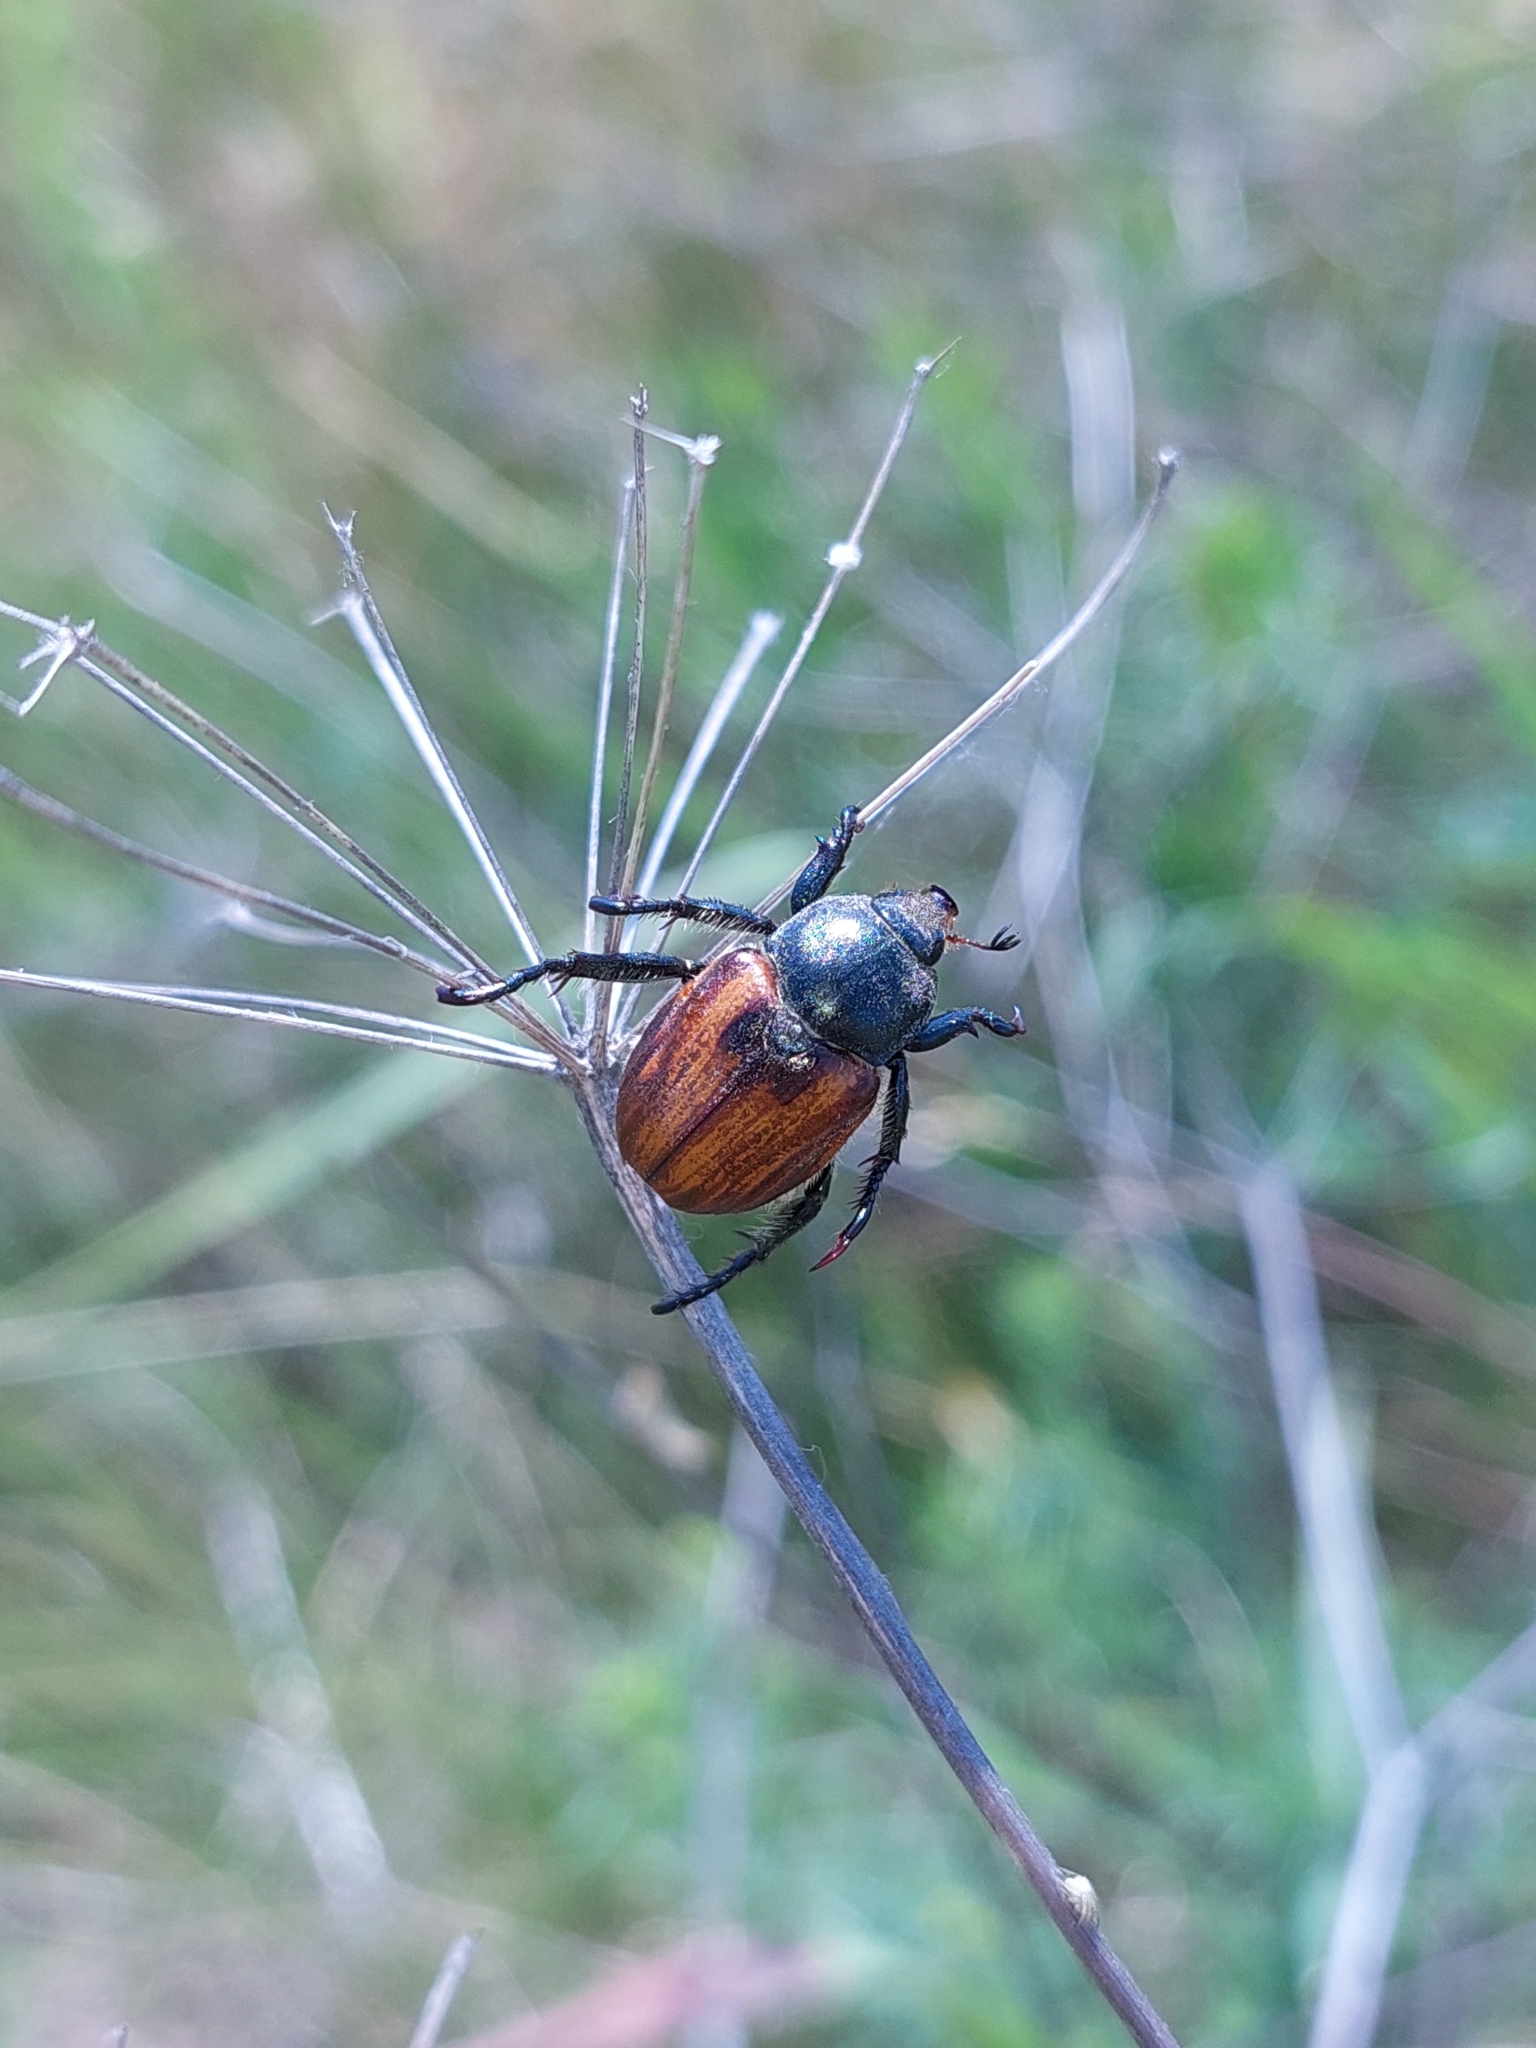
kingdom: Animalia
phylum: Arthropoda
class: Insecta
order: Coleoptera
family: Scarabaeidae
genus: Anisoplia
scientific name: Anisoplia austriaca
